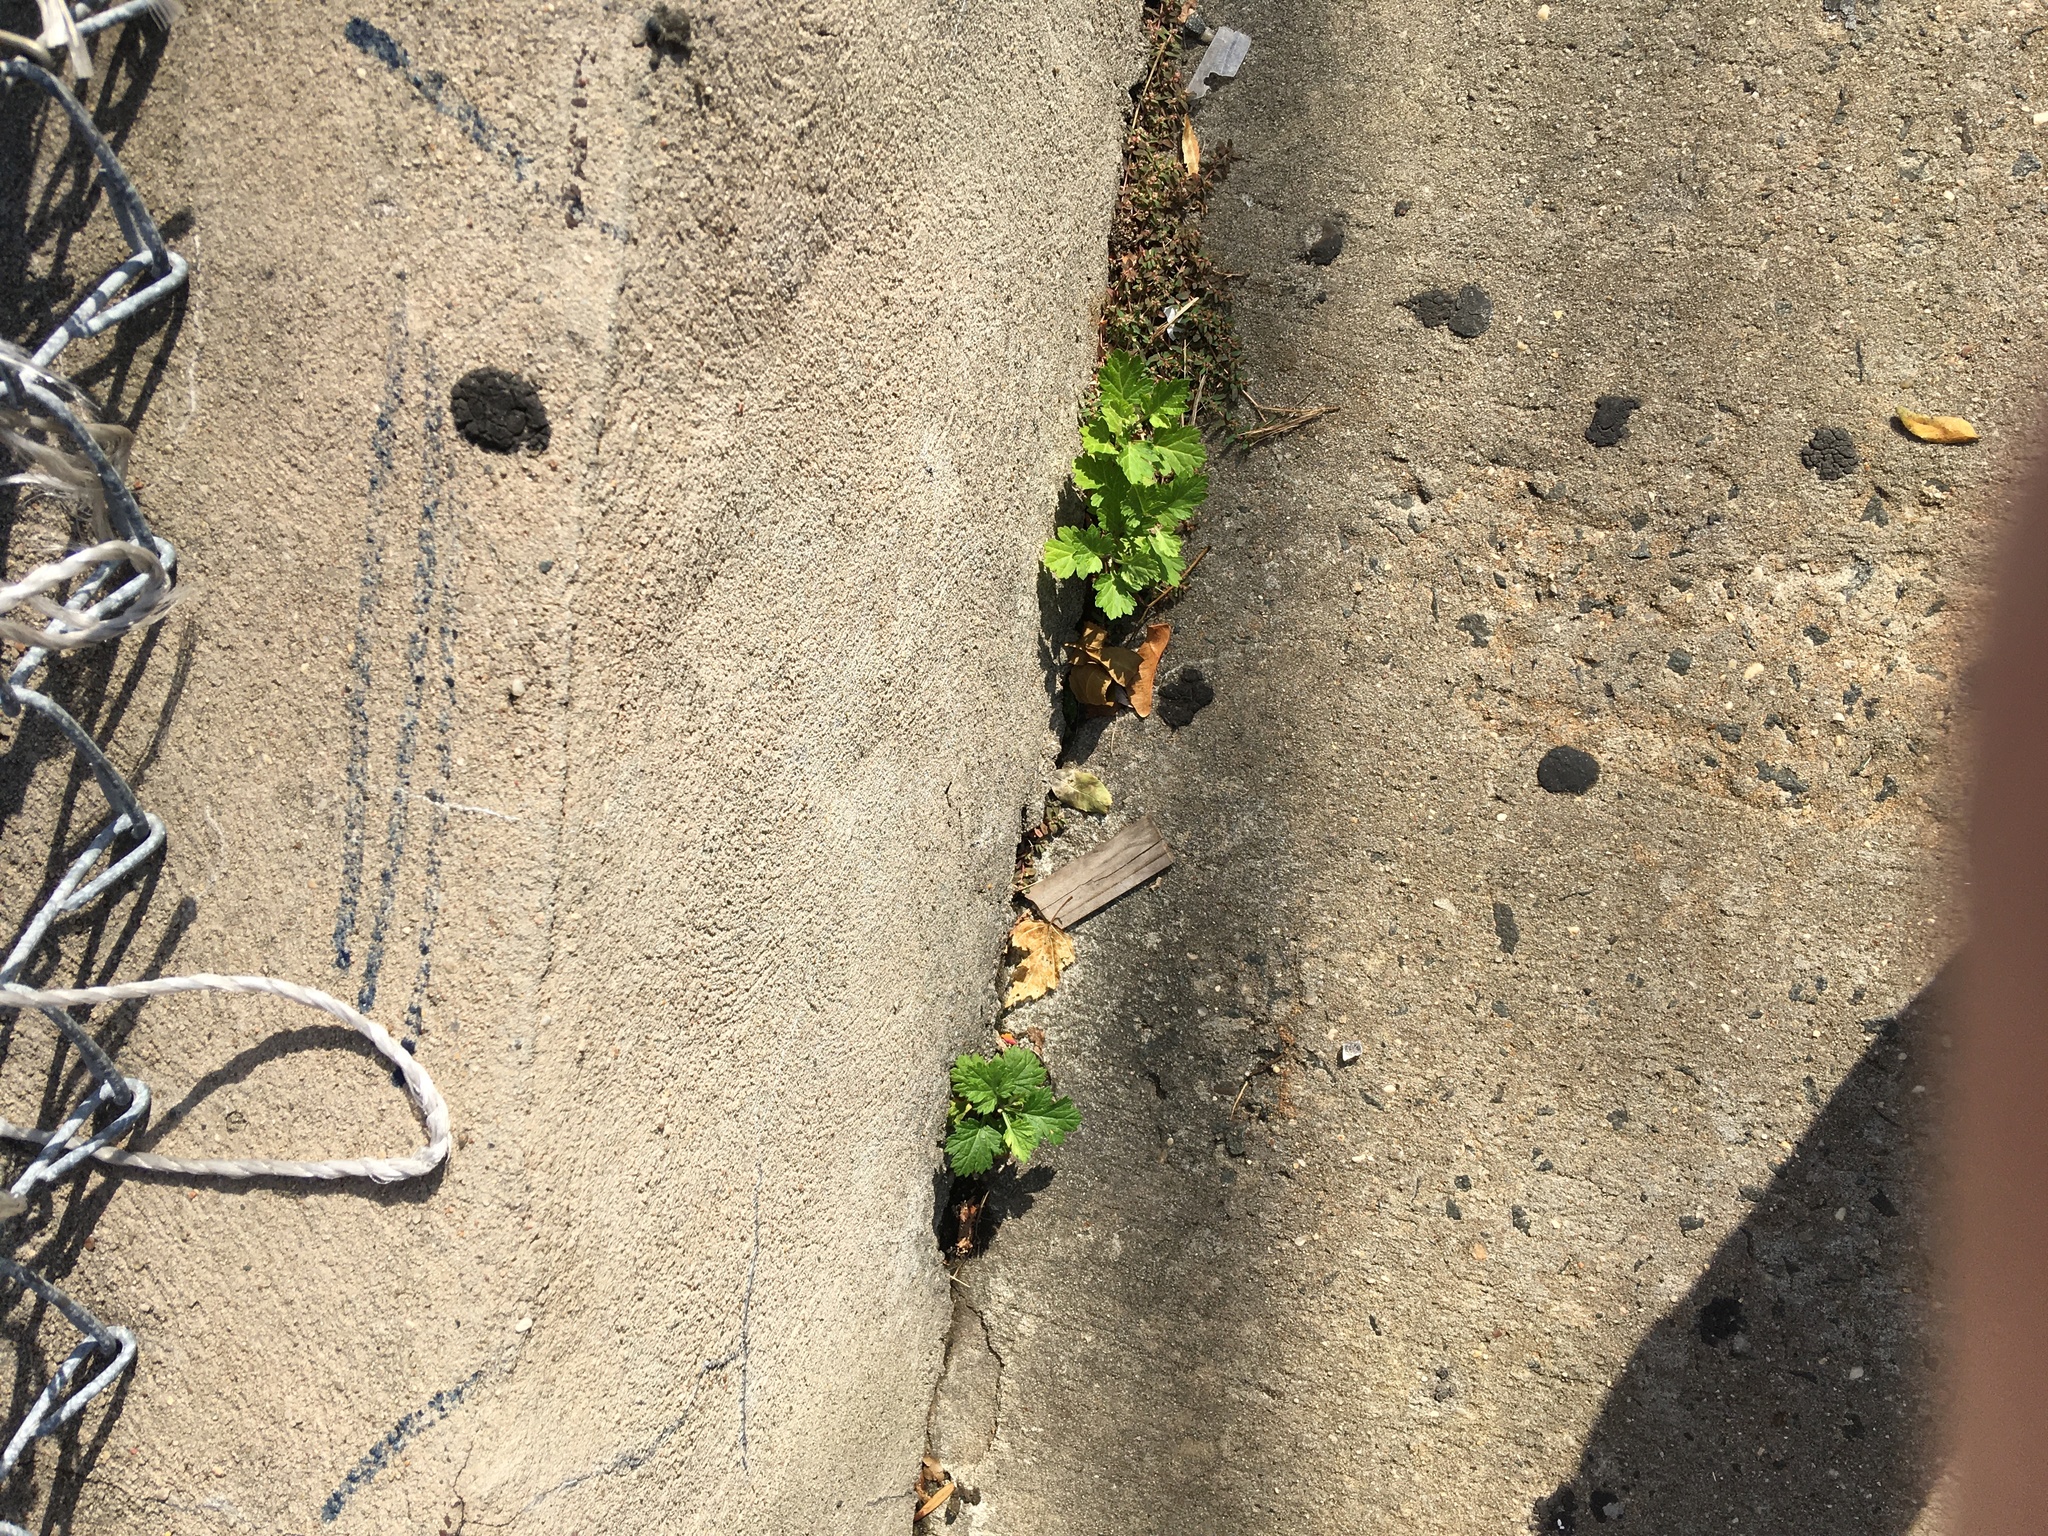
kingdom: Plantae
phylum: Tracheophyta
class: Magnoliopsida
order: Asterales
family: Asteraceae
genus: Artemisia
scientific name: Artemisia vulgaris
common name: Mugwort
